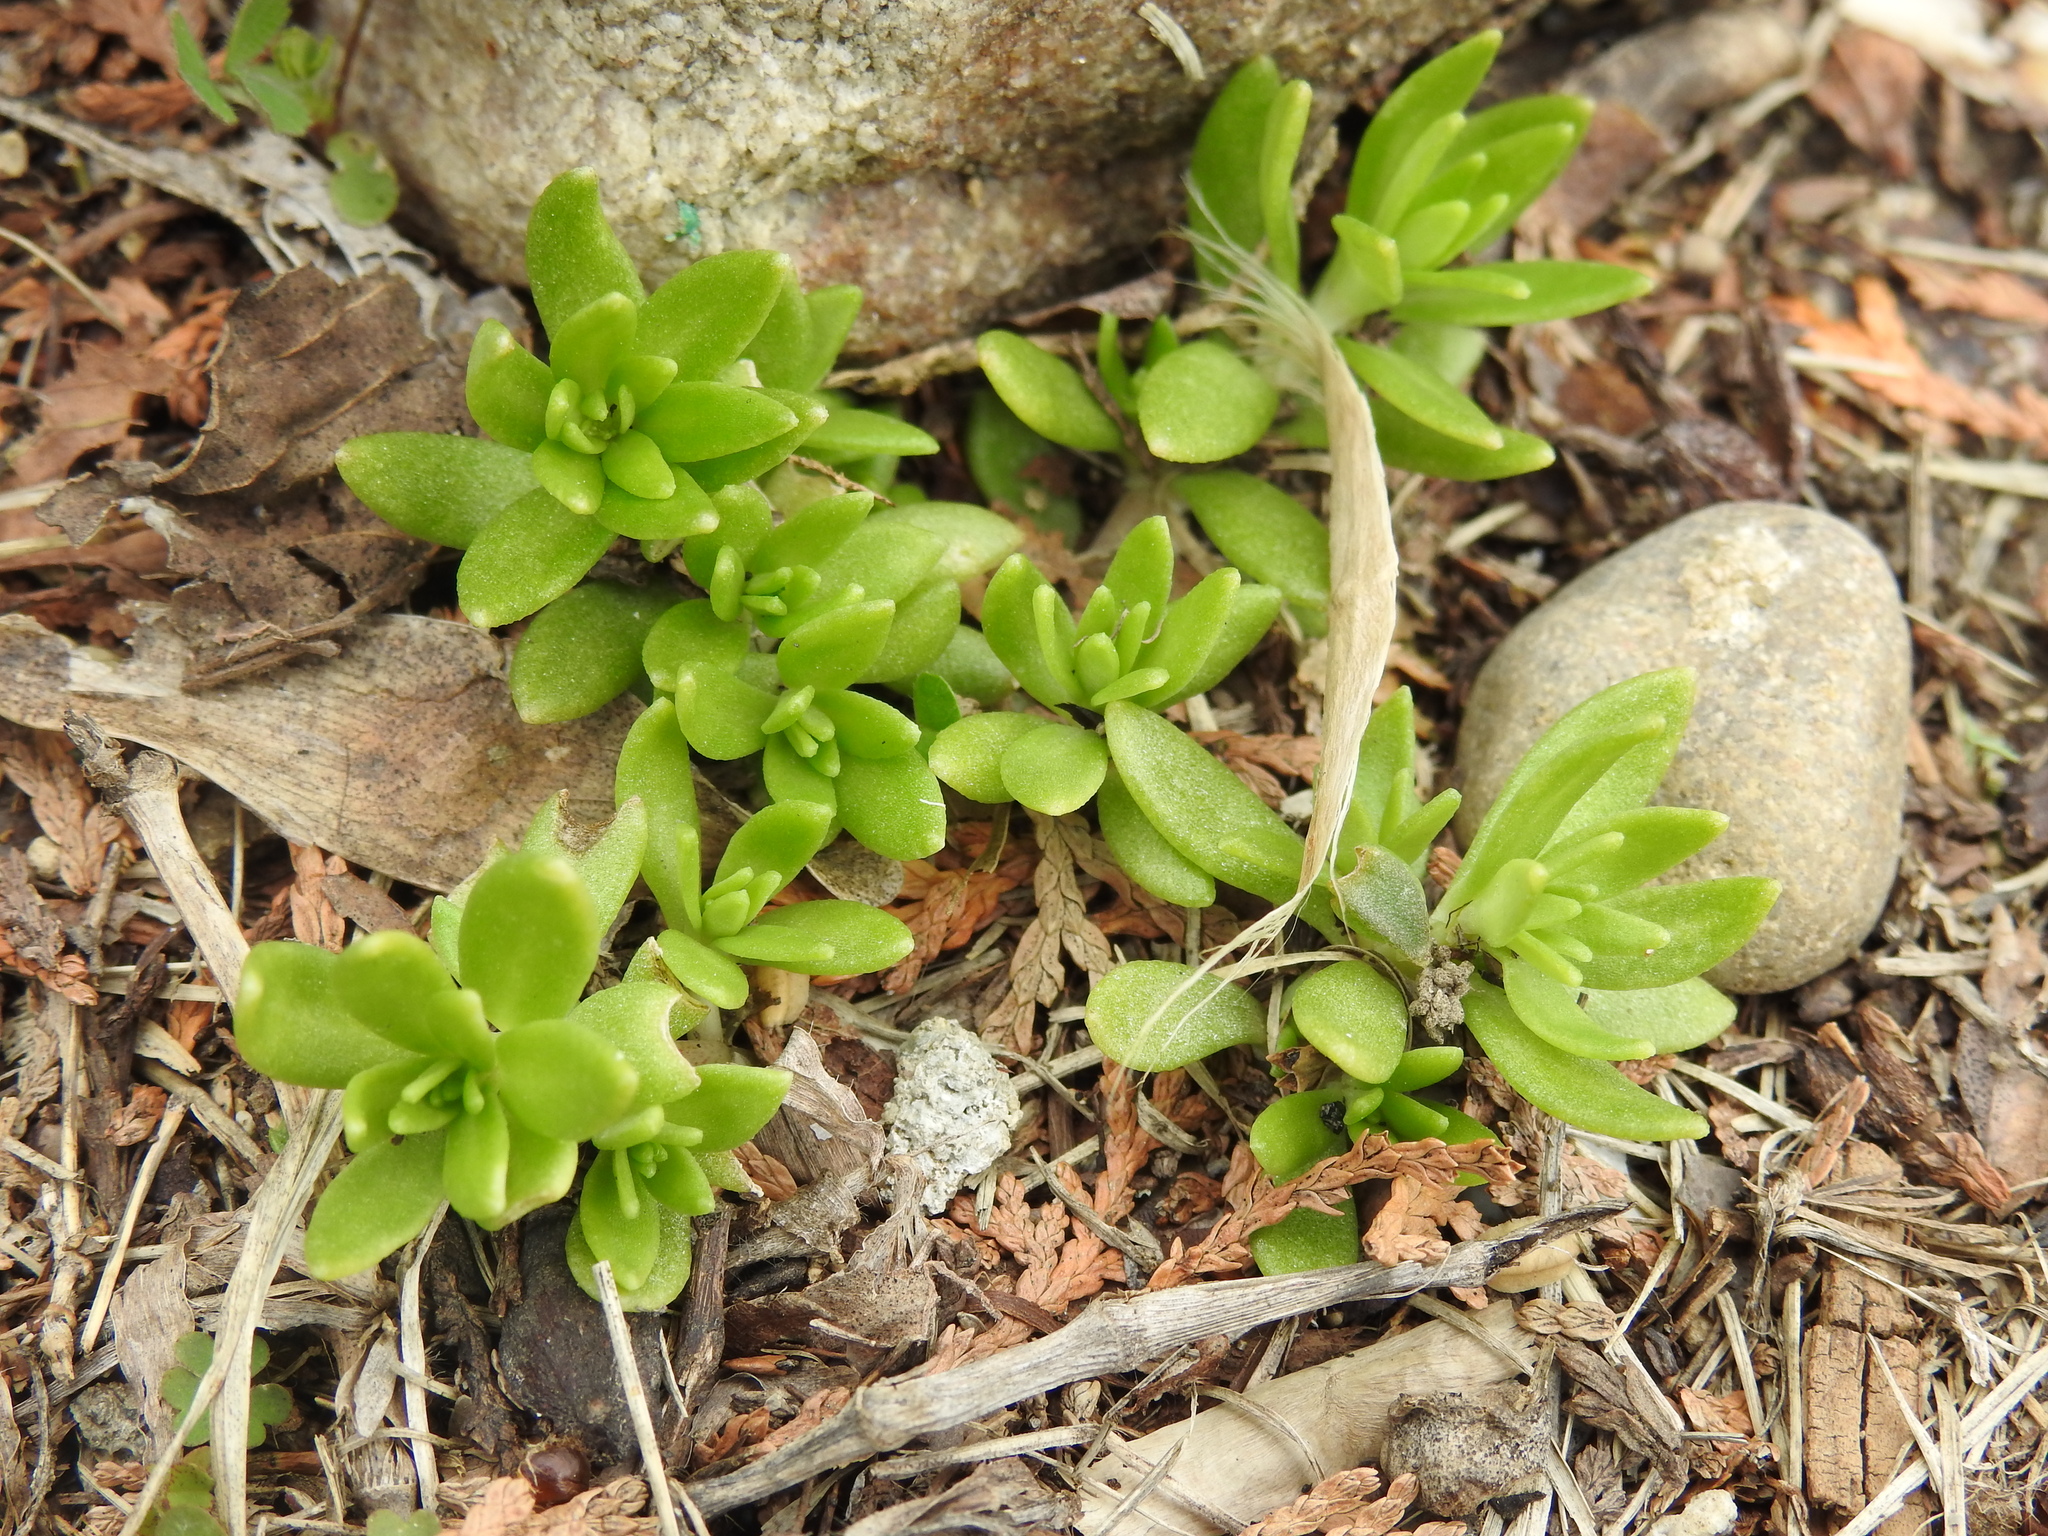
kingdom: Plantae
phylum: Tracheophyta
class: Magnoliopsida
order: Saxifragales
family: Crassulaceae
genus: Sedum
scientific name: Sedum sarmentosum
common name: Stringy stonecrop
